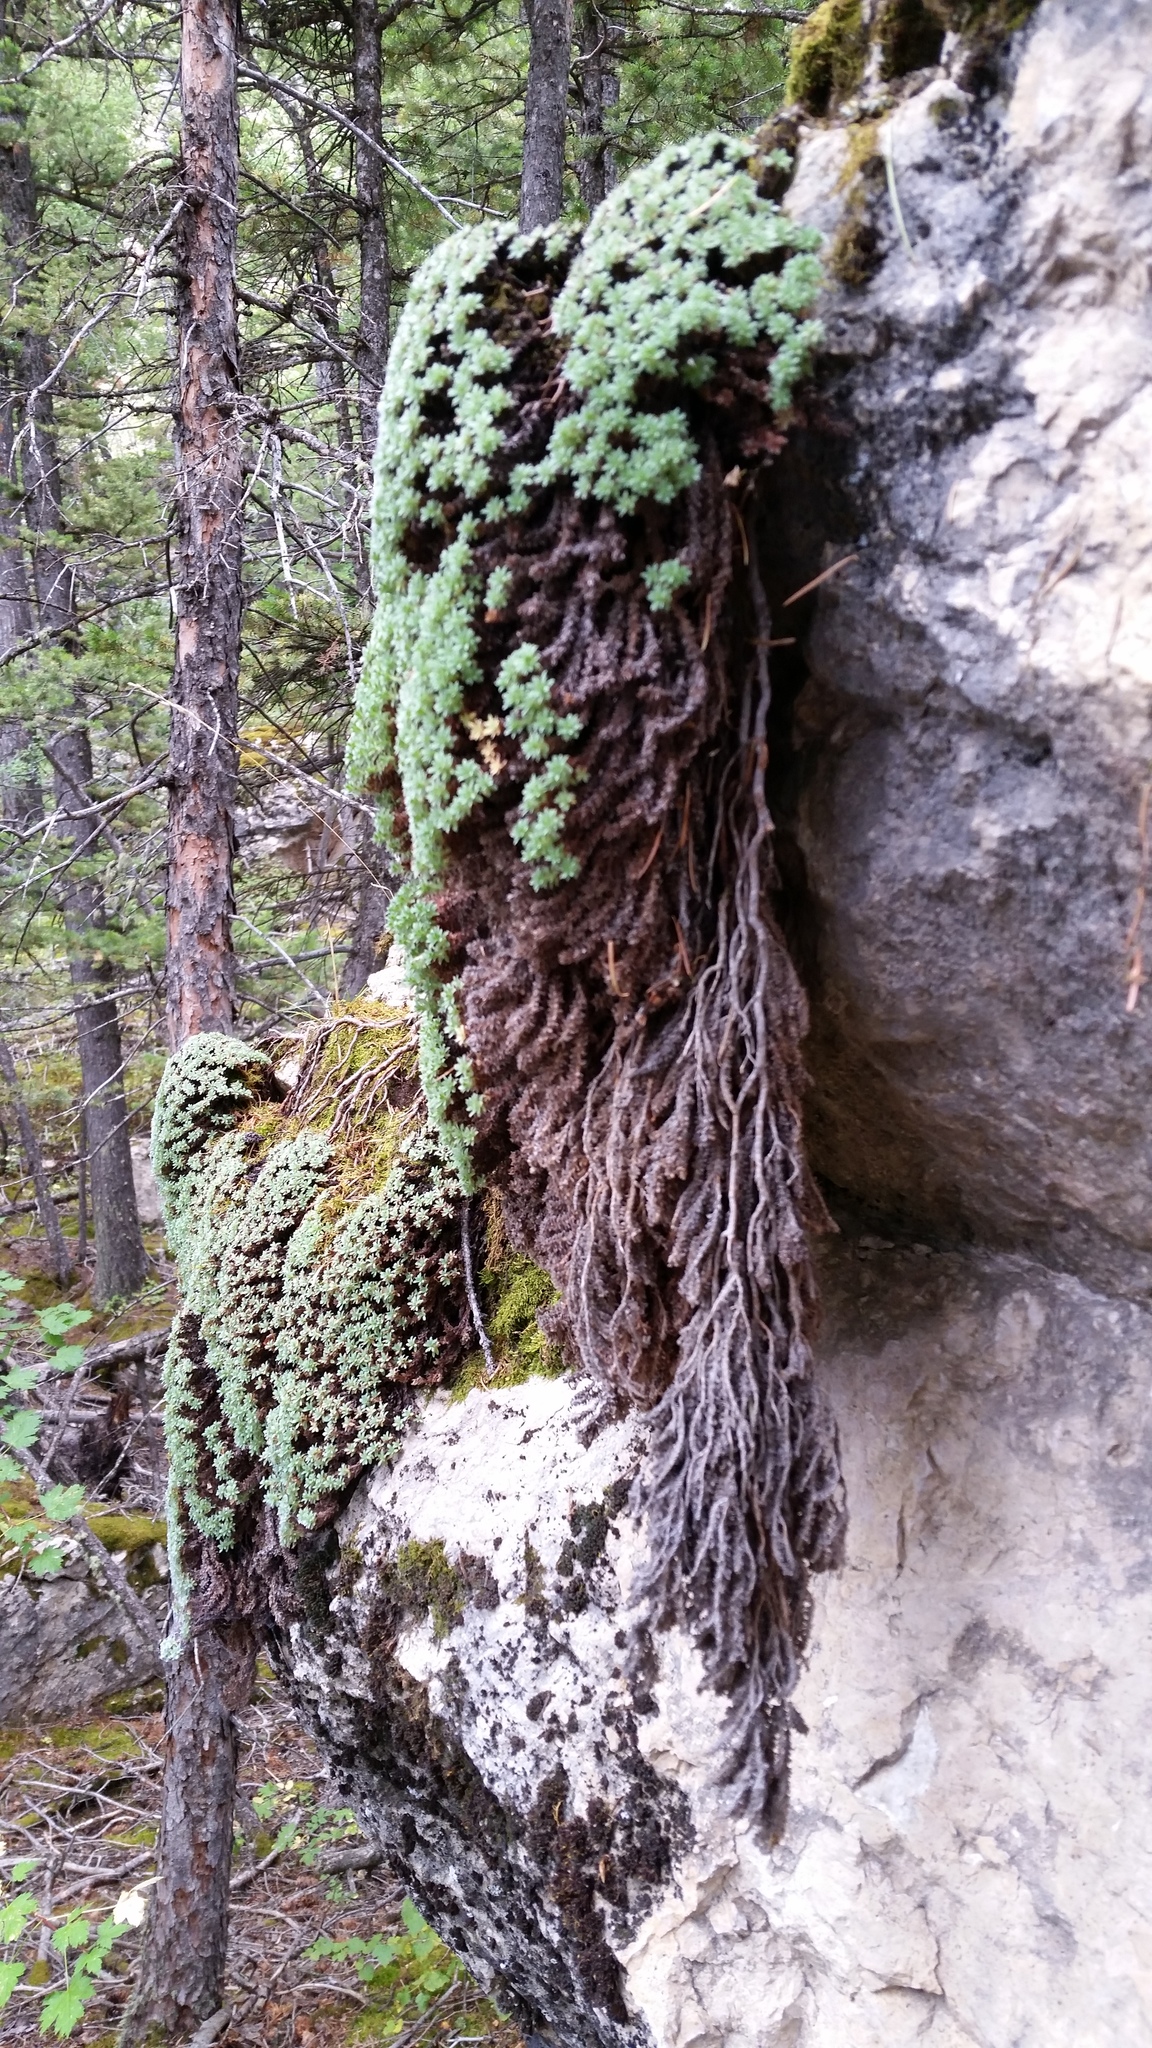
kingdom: Plantae
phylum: Tracheophyta
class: Magnoliopsida
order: Rosales
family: Rosaceae
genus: Kelseya
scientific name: Kelseya uniflora
